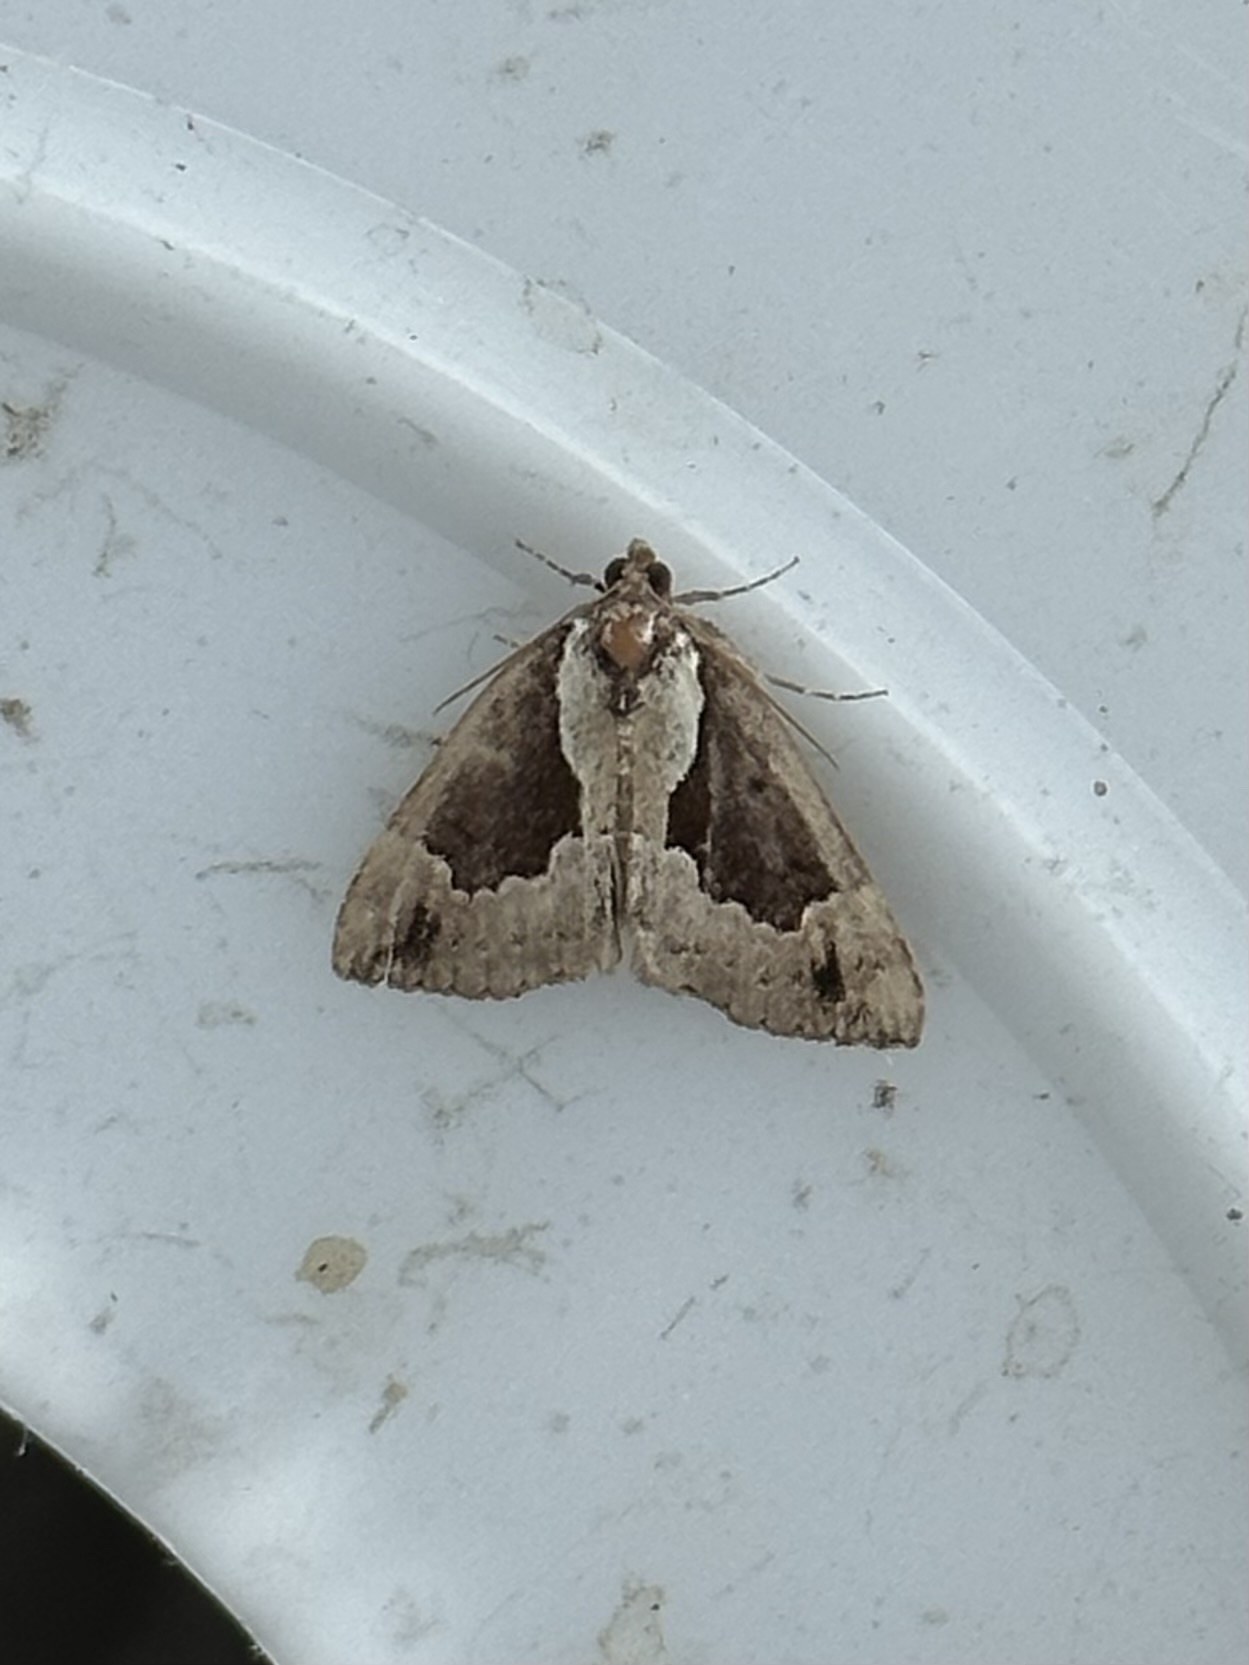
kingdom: Animalia
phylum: Arthropoda
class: Insecta
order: Lepidoptera
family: Erebidae
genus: Hypena
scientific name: Hypena baltimoralis
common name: Baltimore snout
